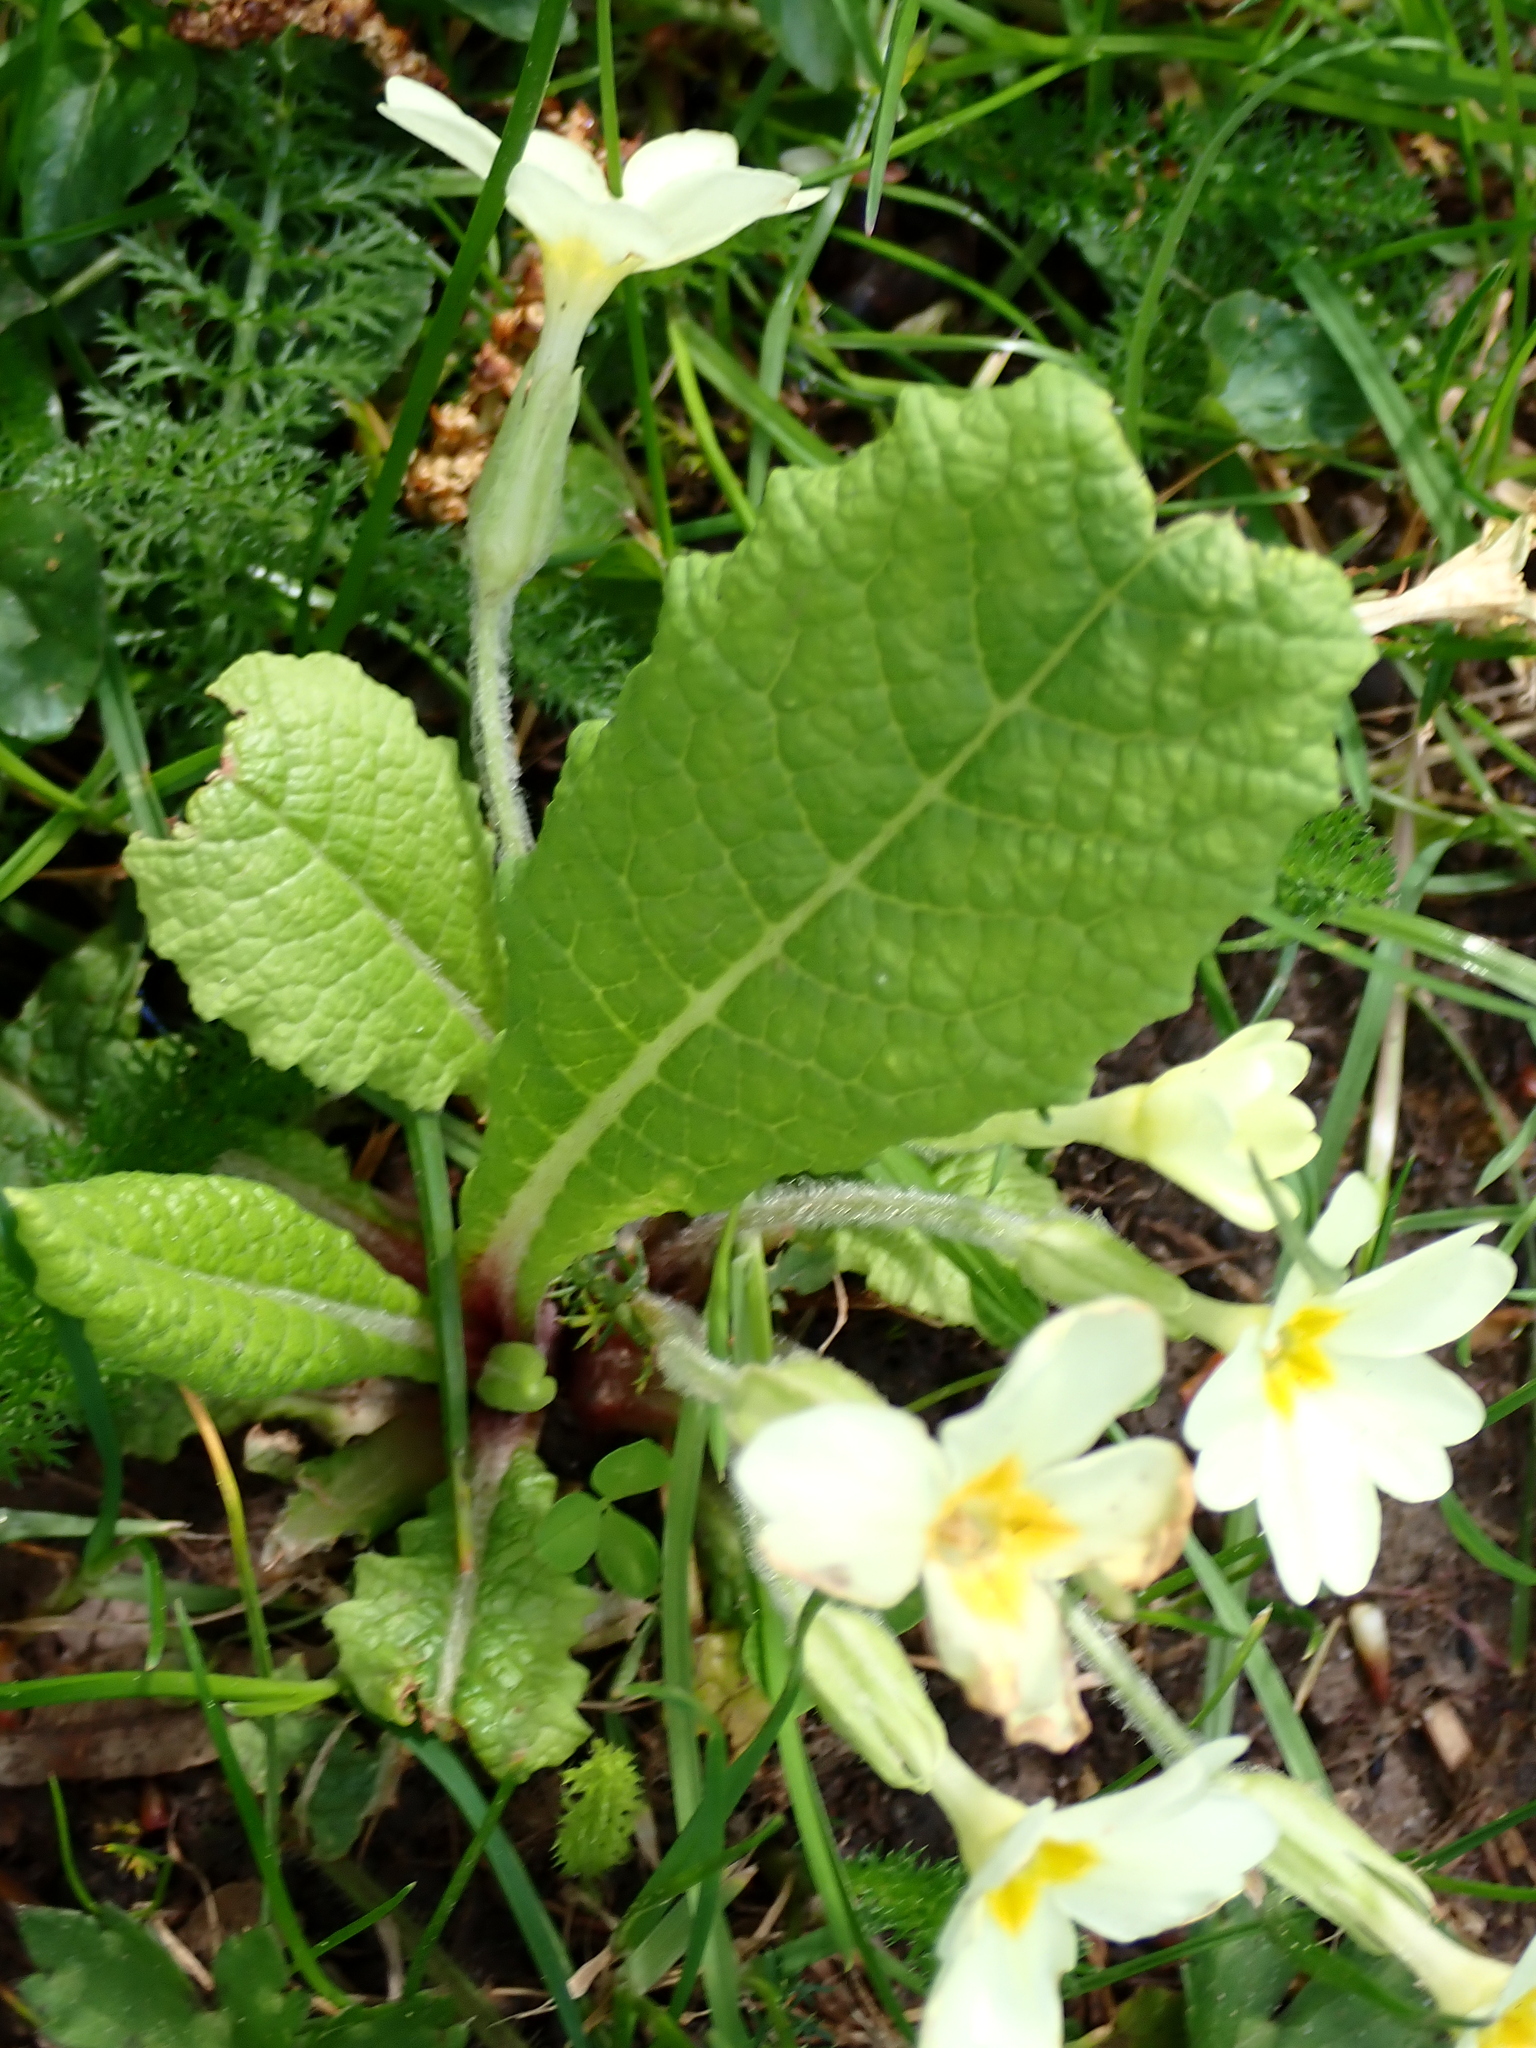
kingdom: Plantae
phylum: Tracheophyta
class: Magnoliopsida
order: Ericales
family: Primulaceae
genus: Primula
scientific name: Primula vulgaris
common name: Primrose
